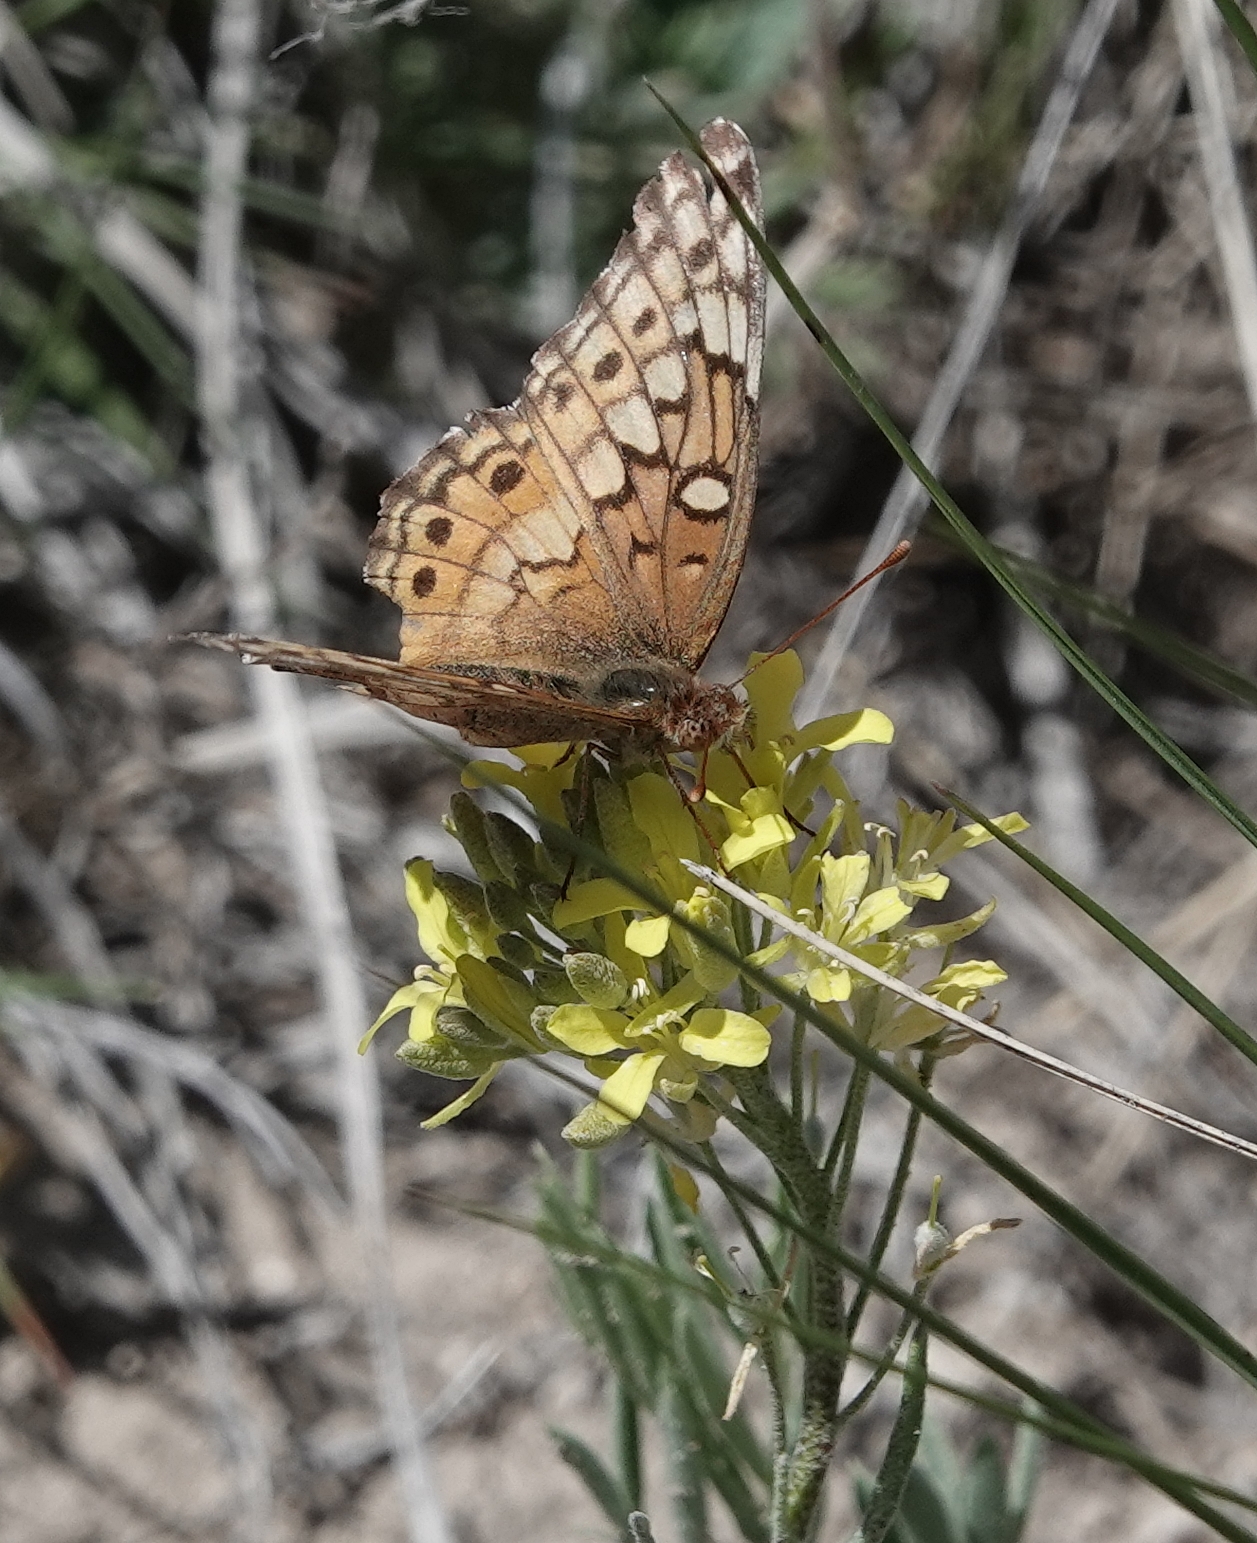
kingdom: Animalia
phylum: Arthropoda
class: Insecta
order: Lepidoptera
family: Nymphalidae
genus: Euptoieta
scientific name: Euptoieta claudia
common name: Variegated fritillary
